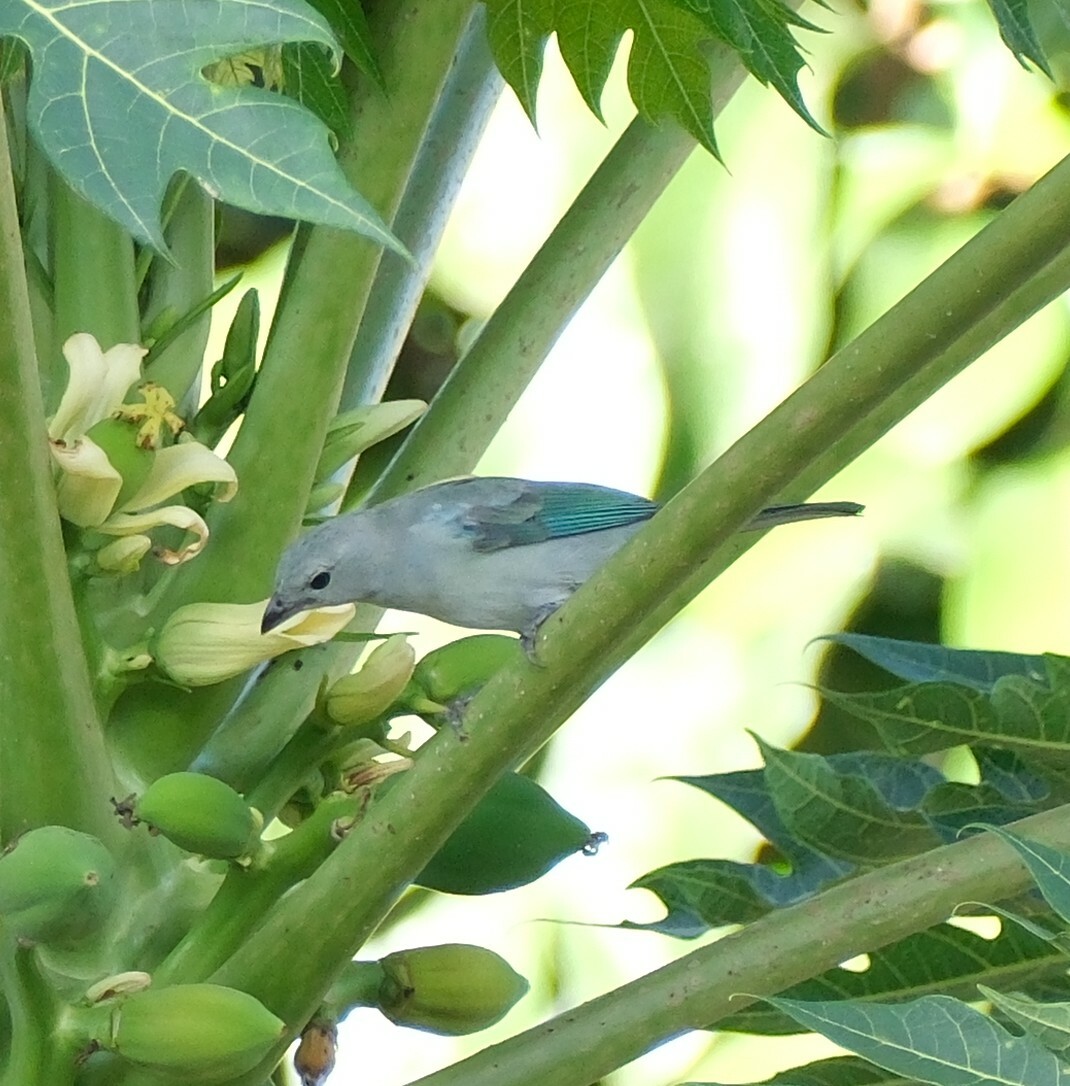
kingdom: Animalia
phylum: Chordata
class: Aves
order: Passeriformes
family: Thraupidae
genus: Thraupis
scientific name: Thraupis episcopus
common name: Blue-grey tanager
